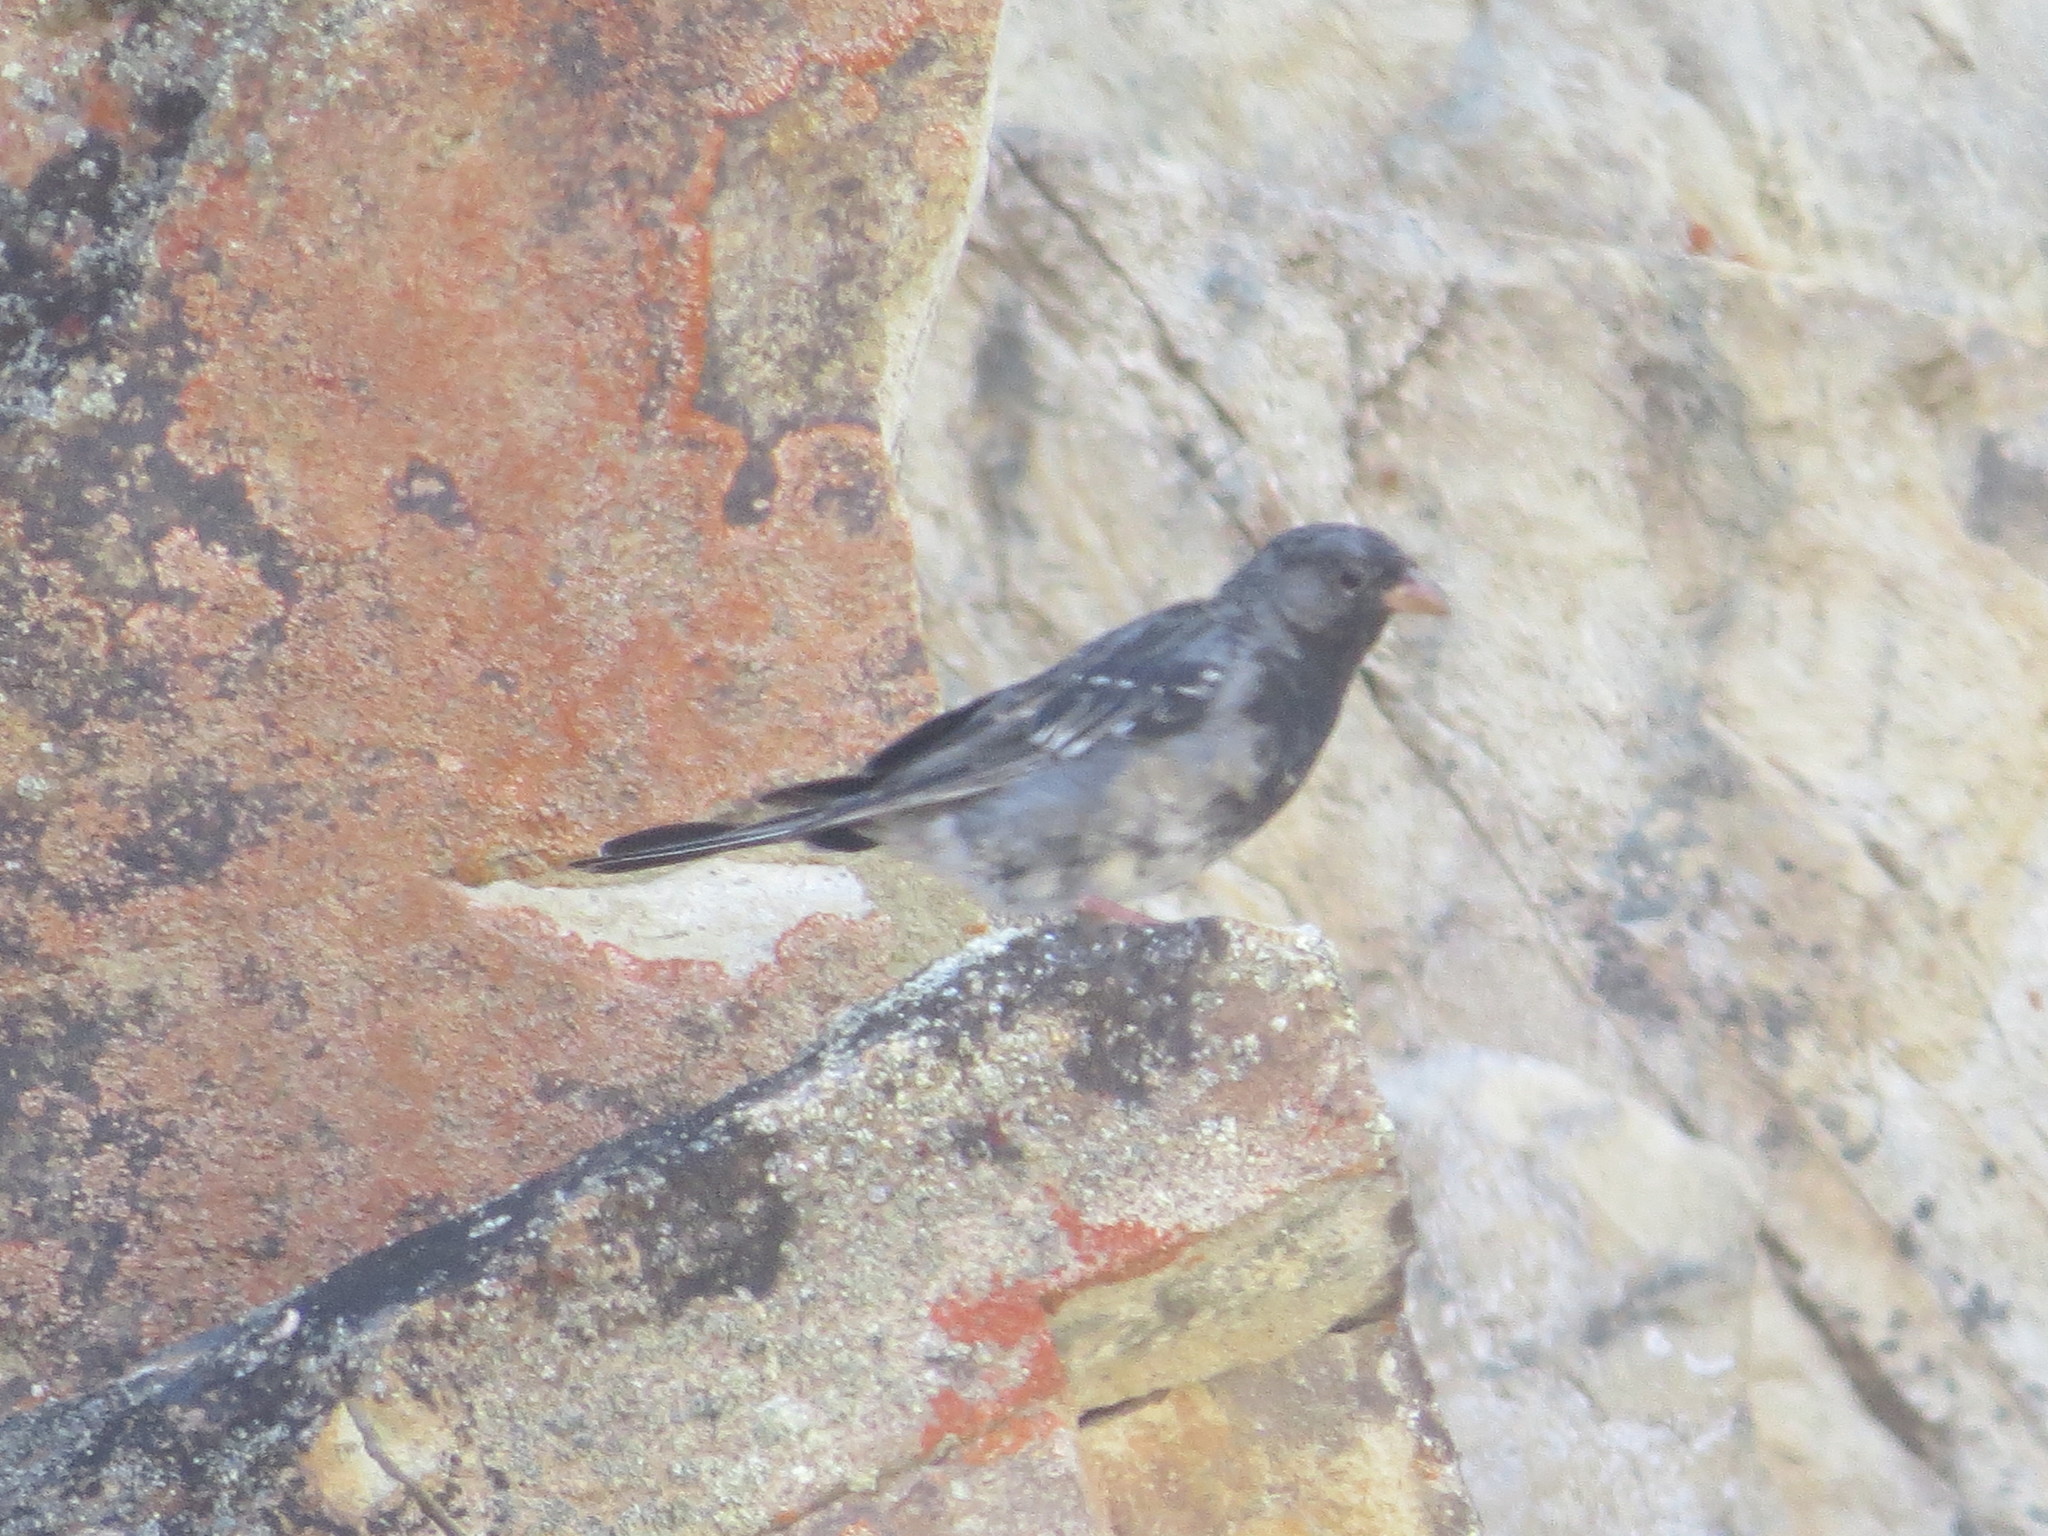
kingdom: Animalia
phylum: Chordata
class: Aves
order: Passeriformes
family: Thraupidae
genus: Rhopospina
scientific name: Rhopospina fruticeti
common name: Mourning sierra finch
